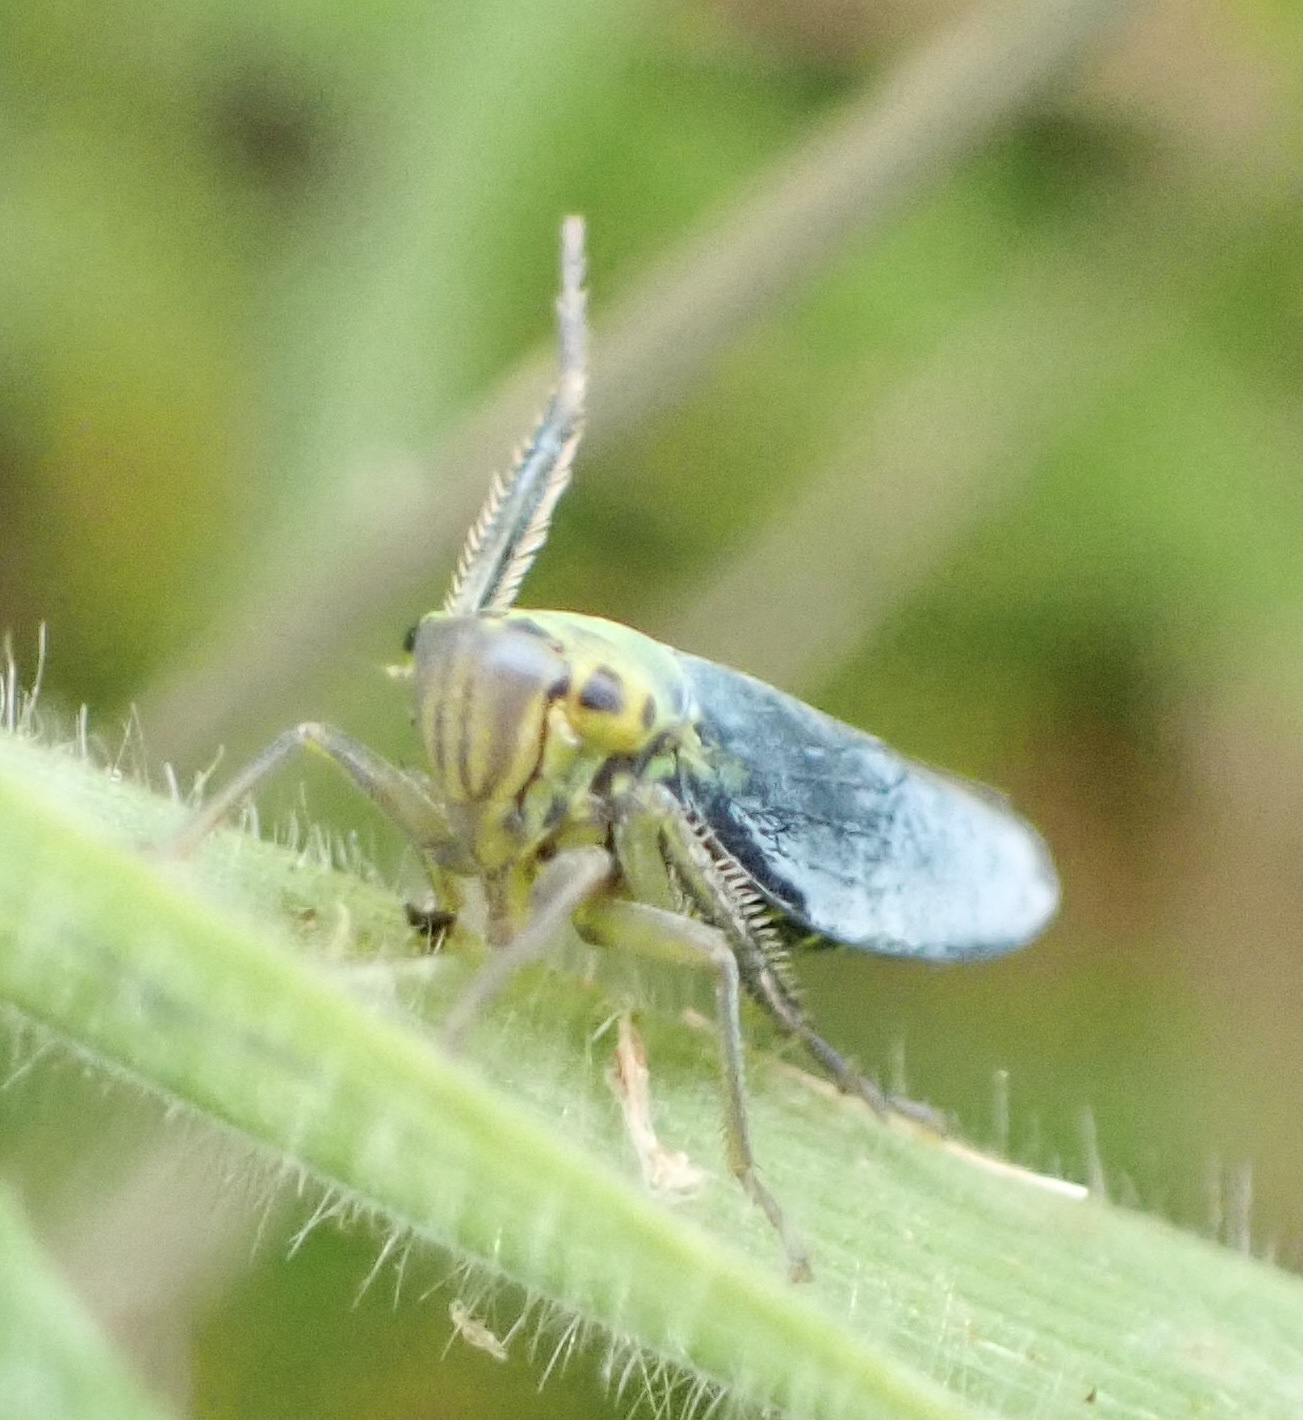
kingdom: Animalia
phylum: Arthropoda
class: Insecta
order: Hemiptera
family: Cicadellidae
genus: Cicadella
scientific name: Cicadella viridis
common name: Leafhopper
